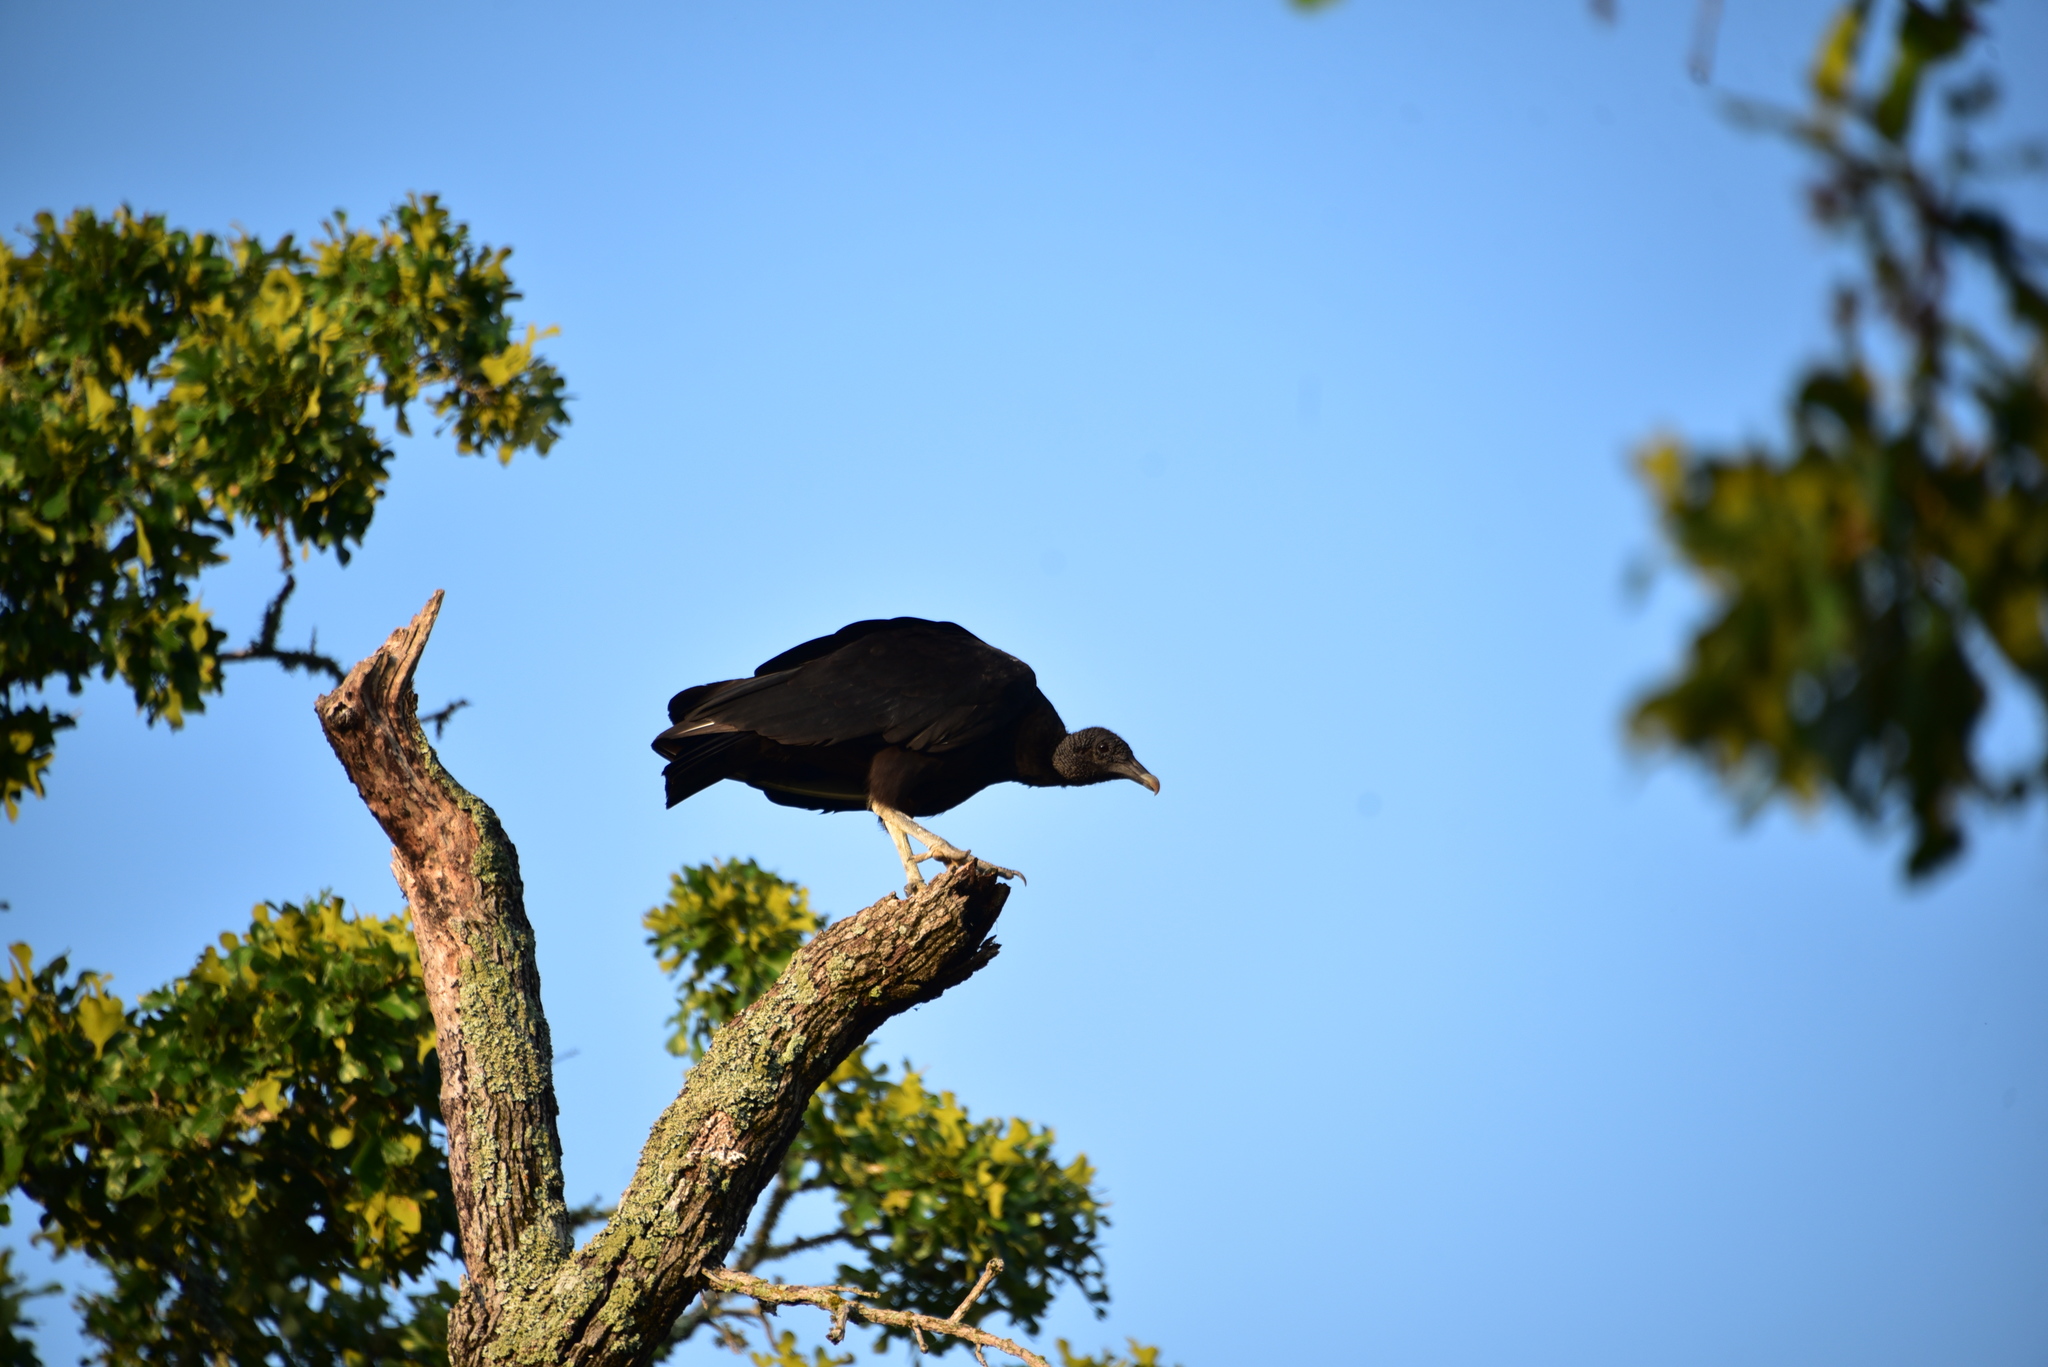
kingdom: Animalia
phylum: Chordata
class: Aves
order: Accipitriformes
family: Cathartidae
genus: Coragyps
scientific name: Coragyps atratus
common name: Black vulture
